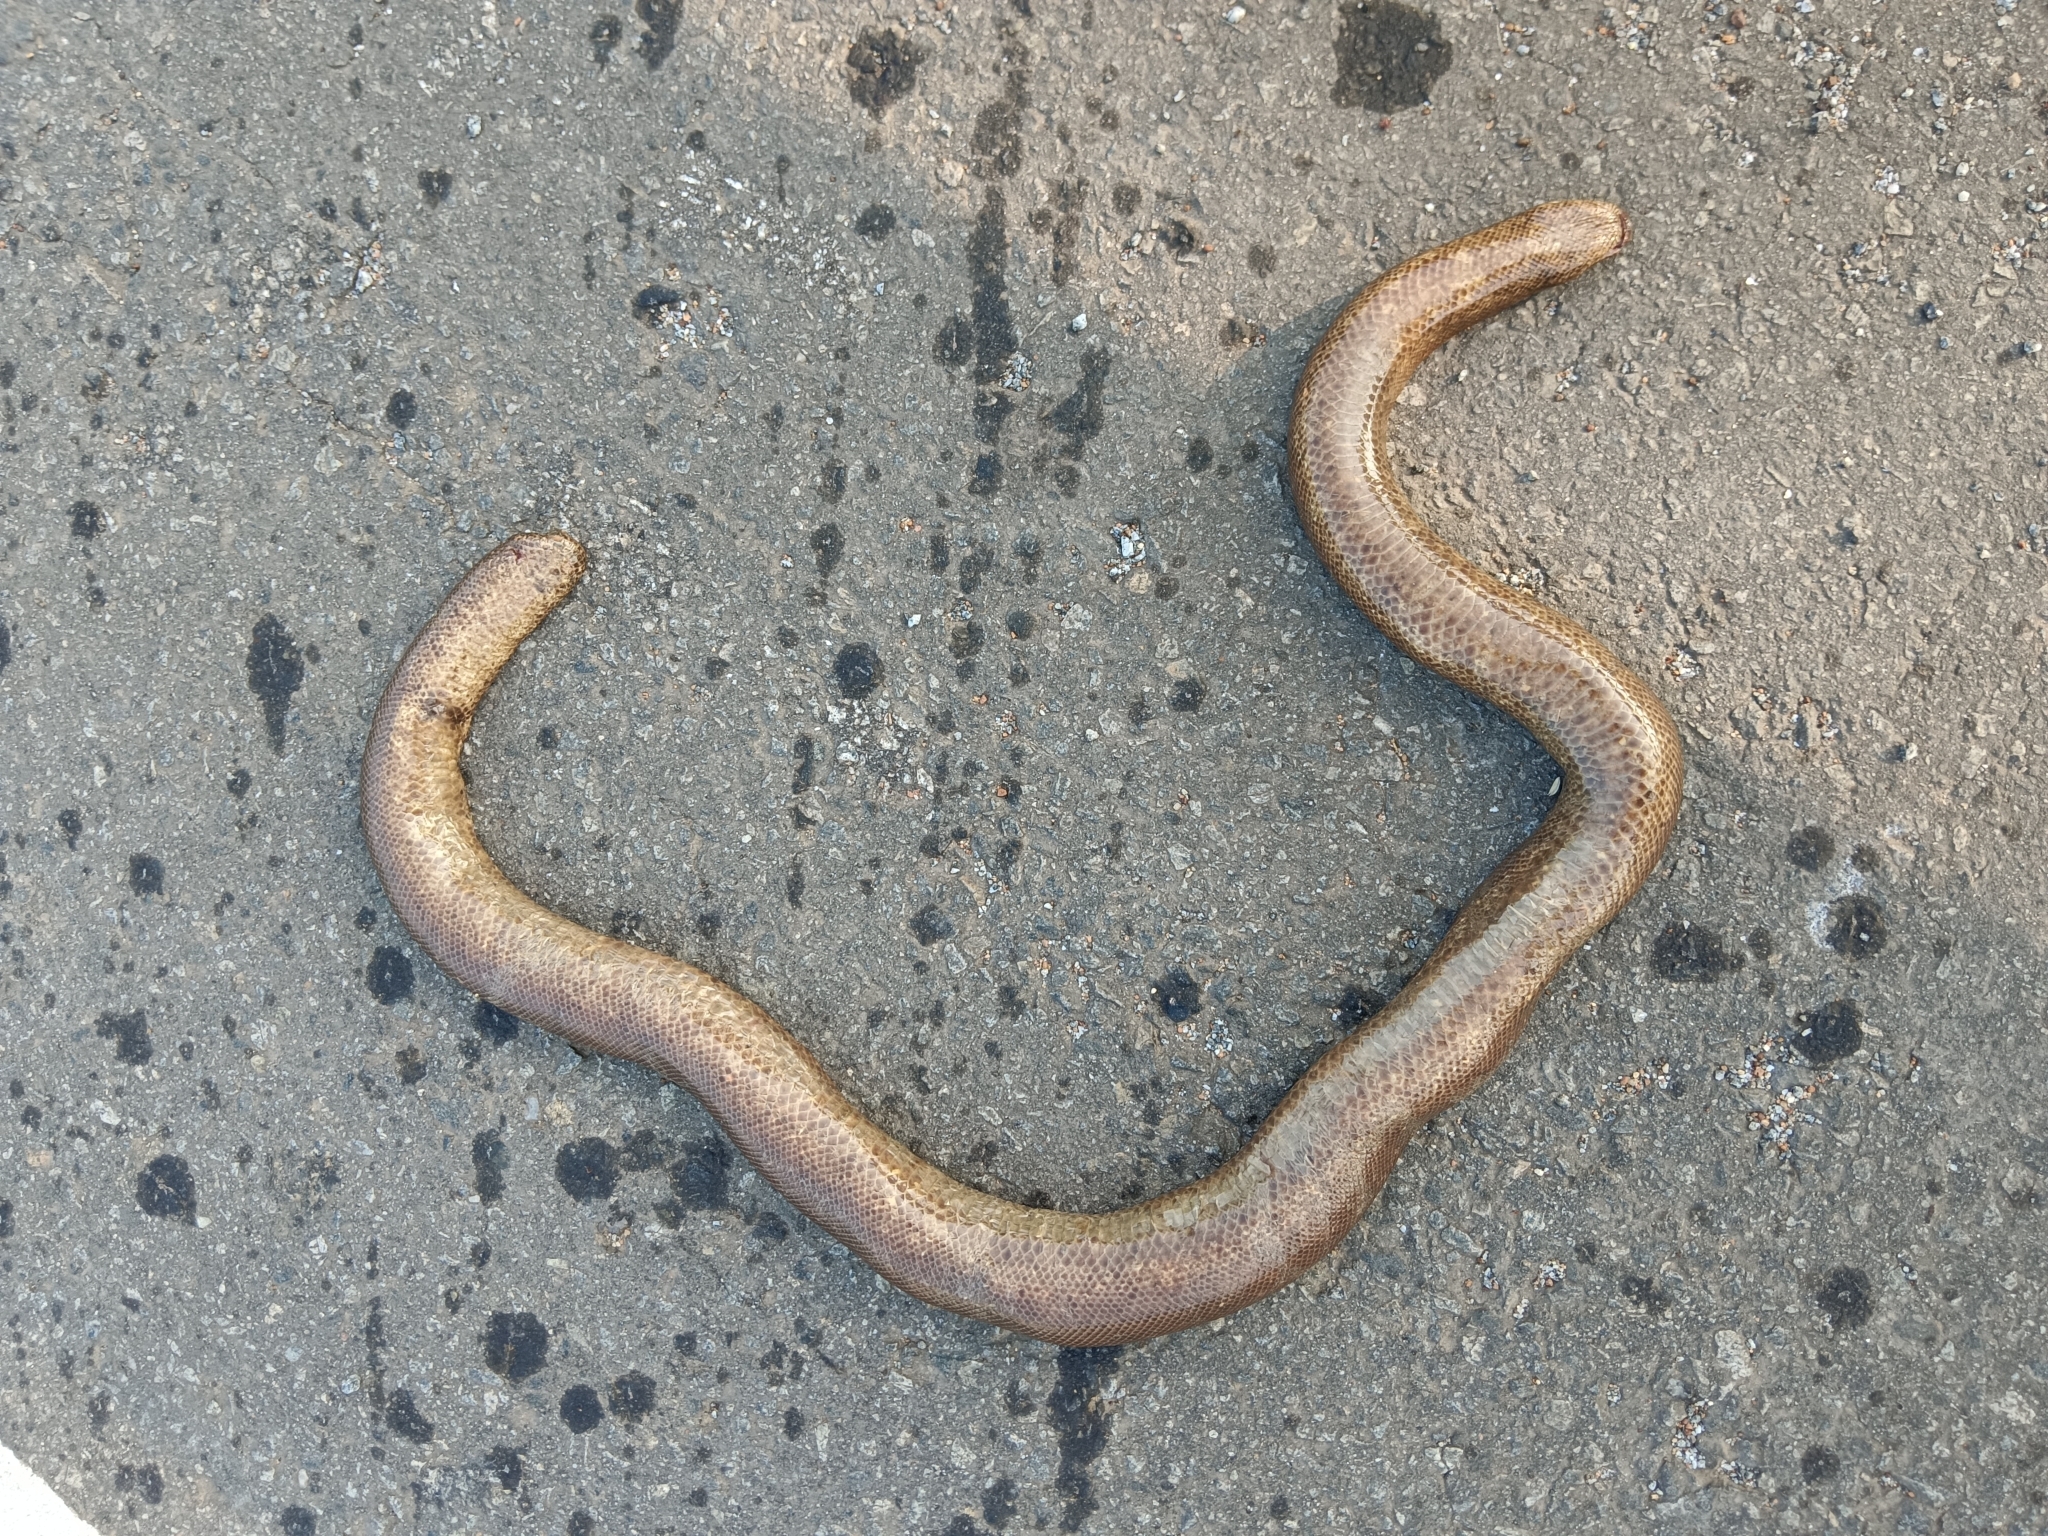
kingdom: Animalia
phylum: Chordata
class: Squamata
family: Boidae
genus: Eryx
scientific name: Eryx johnii
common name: Brown sand boa
